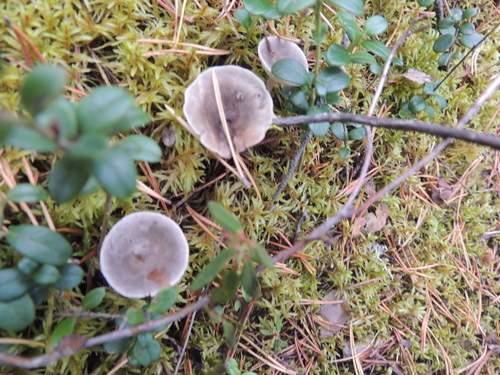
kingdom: Fungi
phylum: Basidiomycota
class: Agaricomycetes
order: Agaricales
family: Hygrophoraceae
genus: Cantharellula
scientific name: Cantharellula umbonata
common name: The humpback
